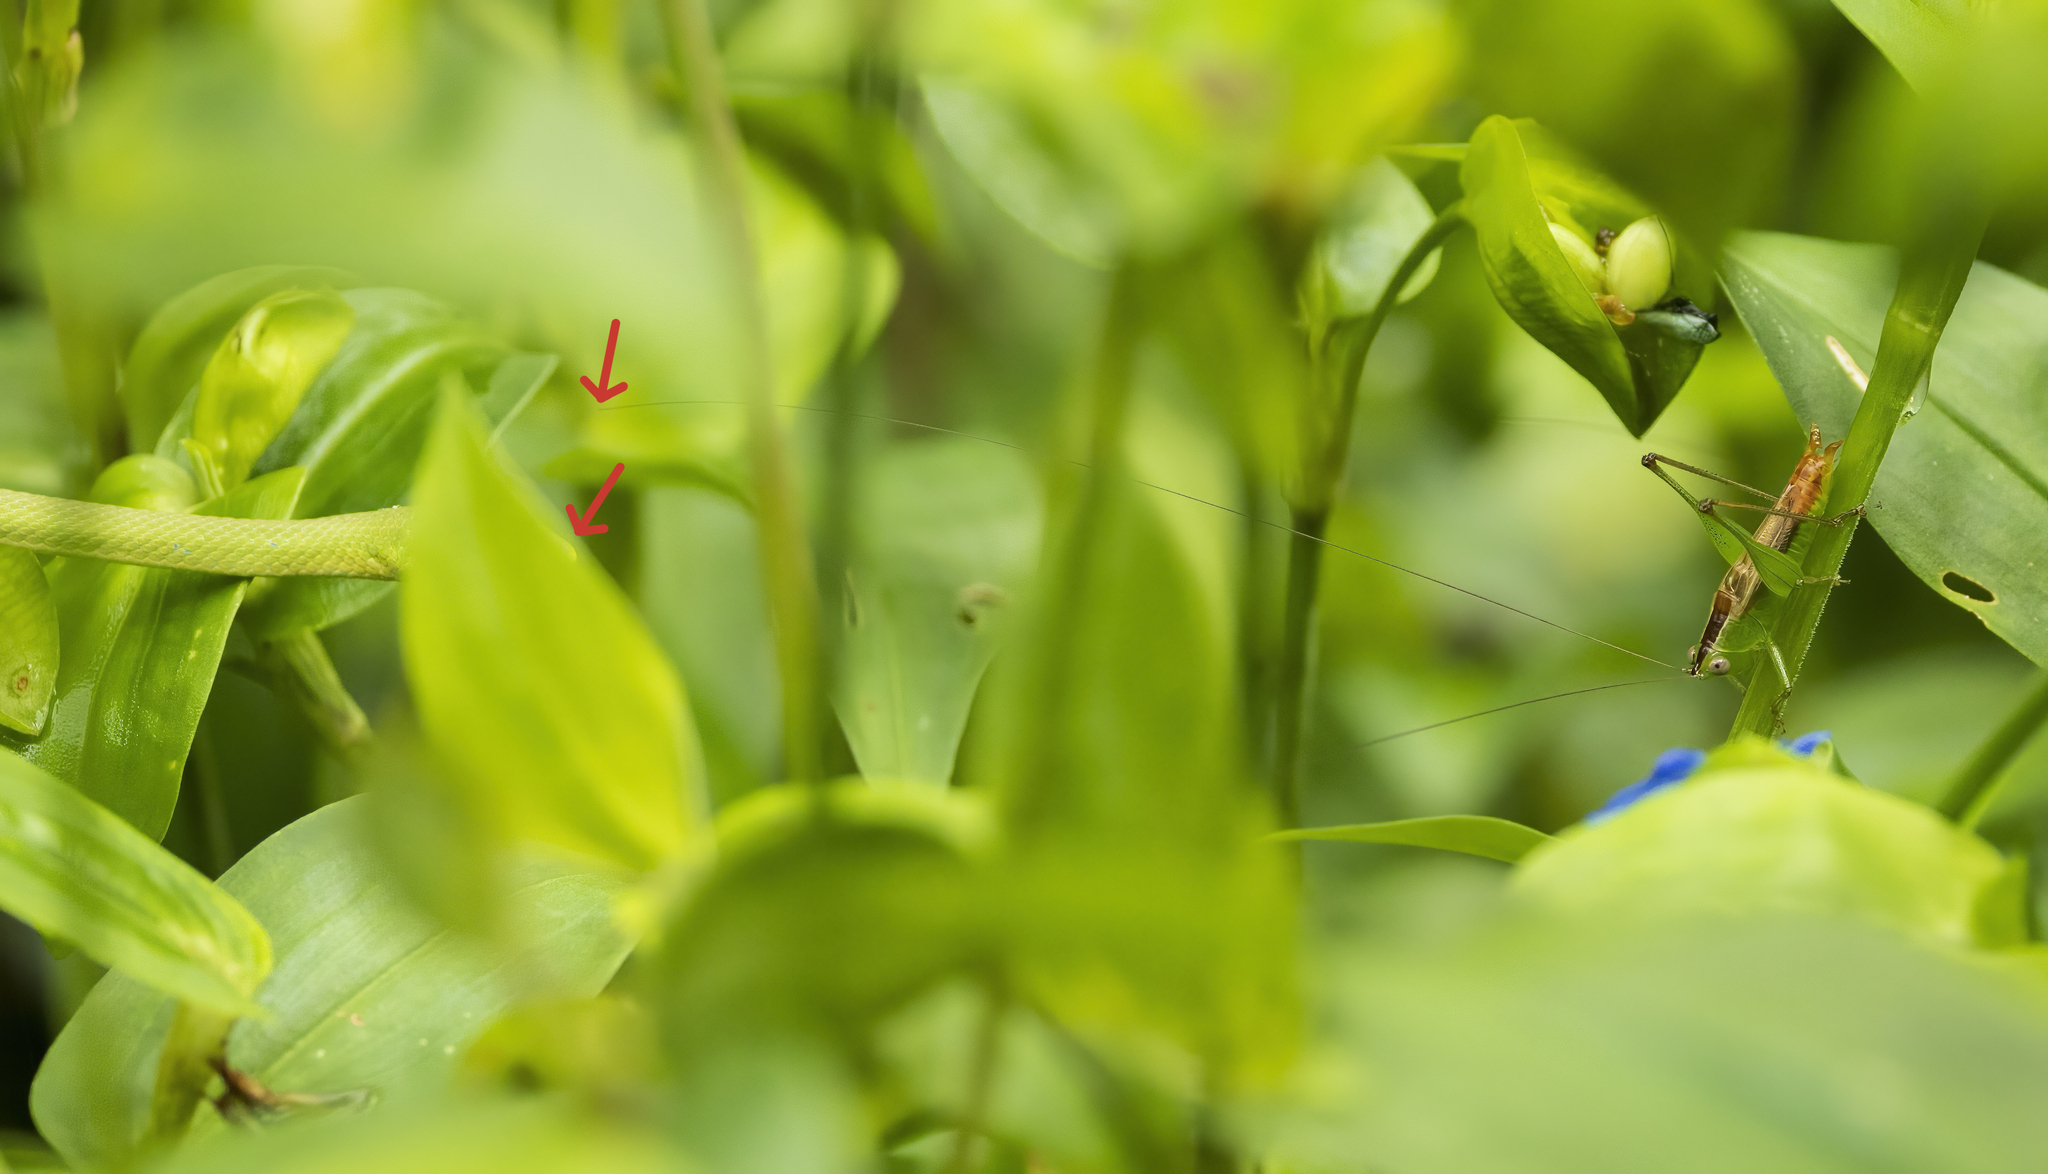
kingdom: Animalia
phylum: Arthropoda
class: Insecta
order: Orthoptera
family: Tettigoniidae
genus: Conocephalus
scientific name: Conocephalus brevipennis
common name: Short-winged meadow katydid
